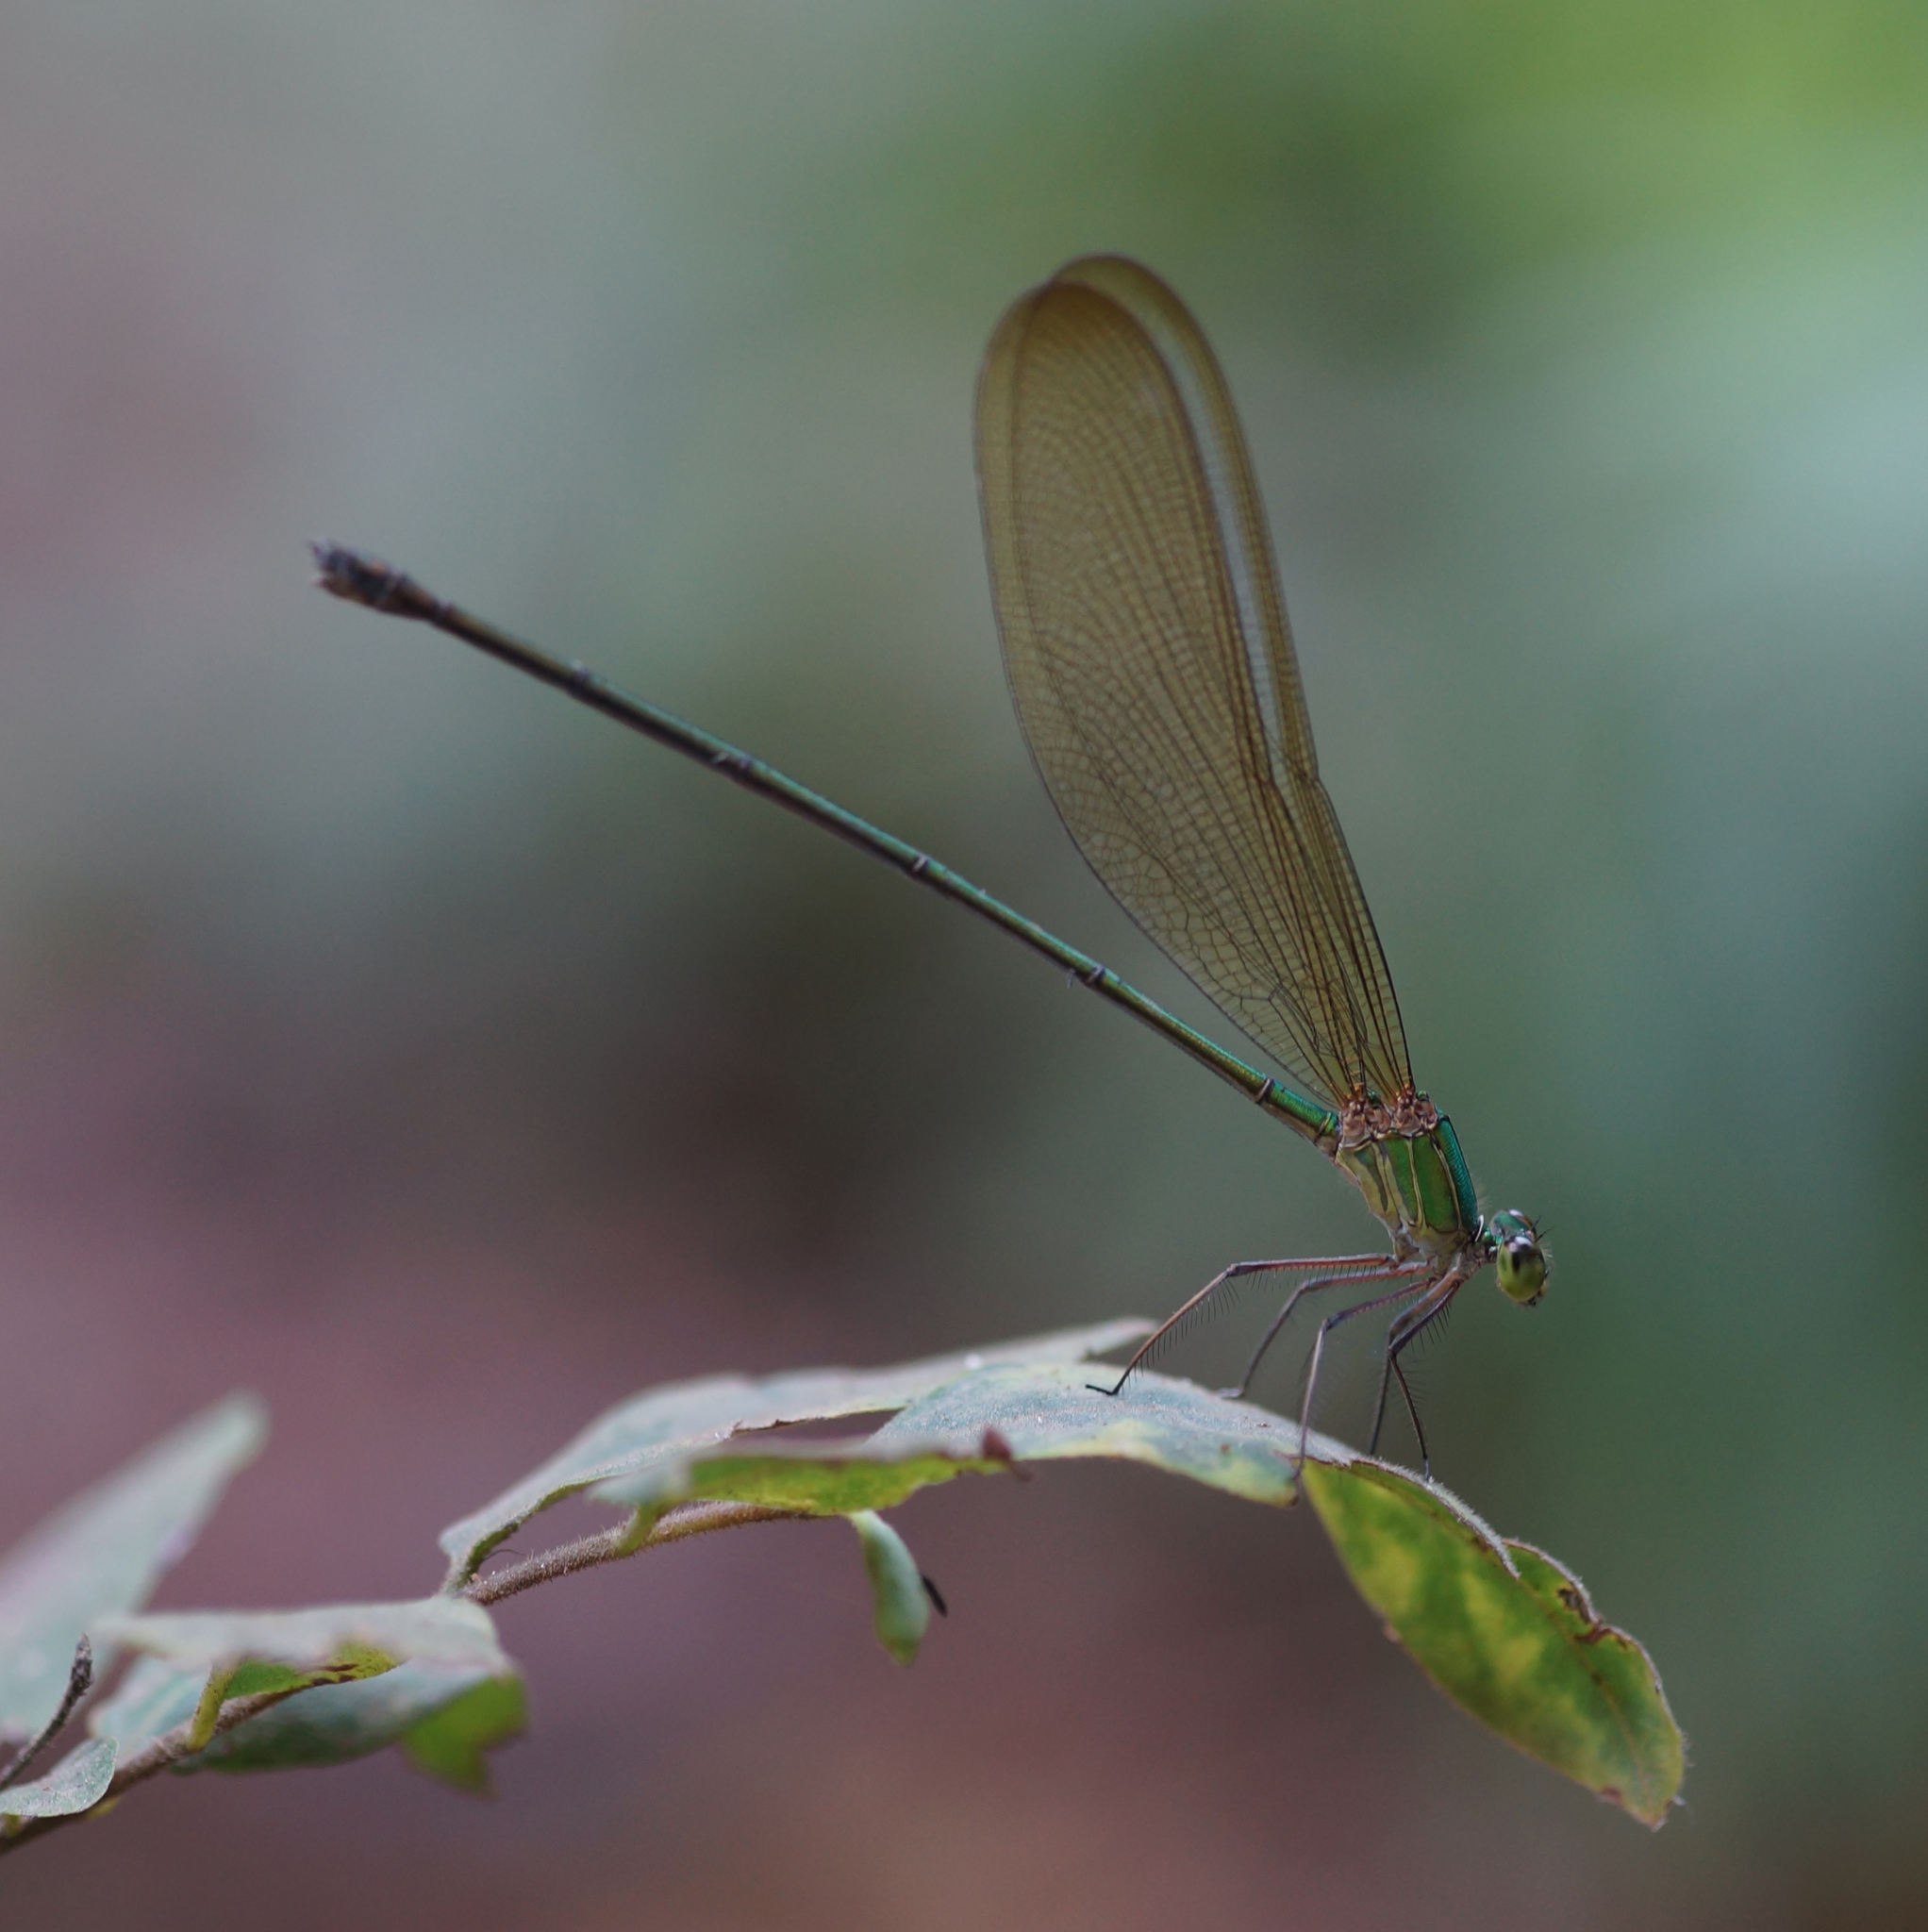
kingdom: Animalia
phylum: Arthropoda
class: Insecta
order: Odonata
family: Calopterygidae
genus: Vestalis
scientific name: Vestalis gracilis
